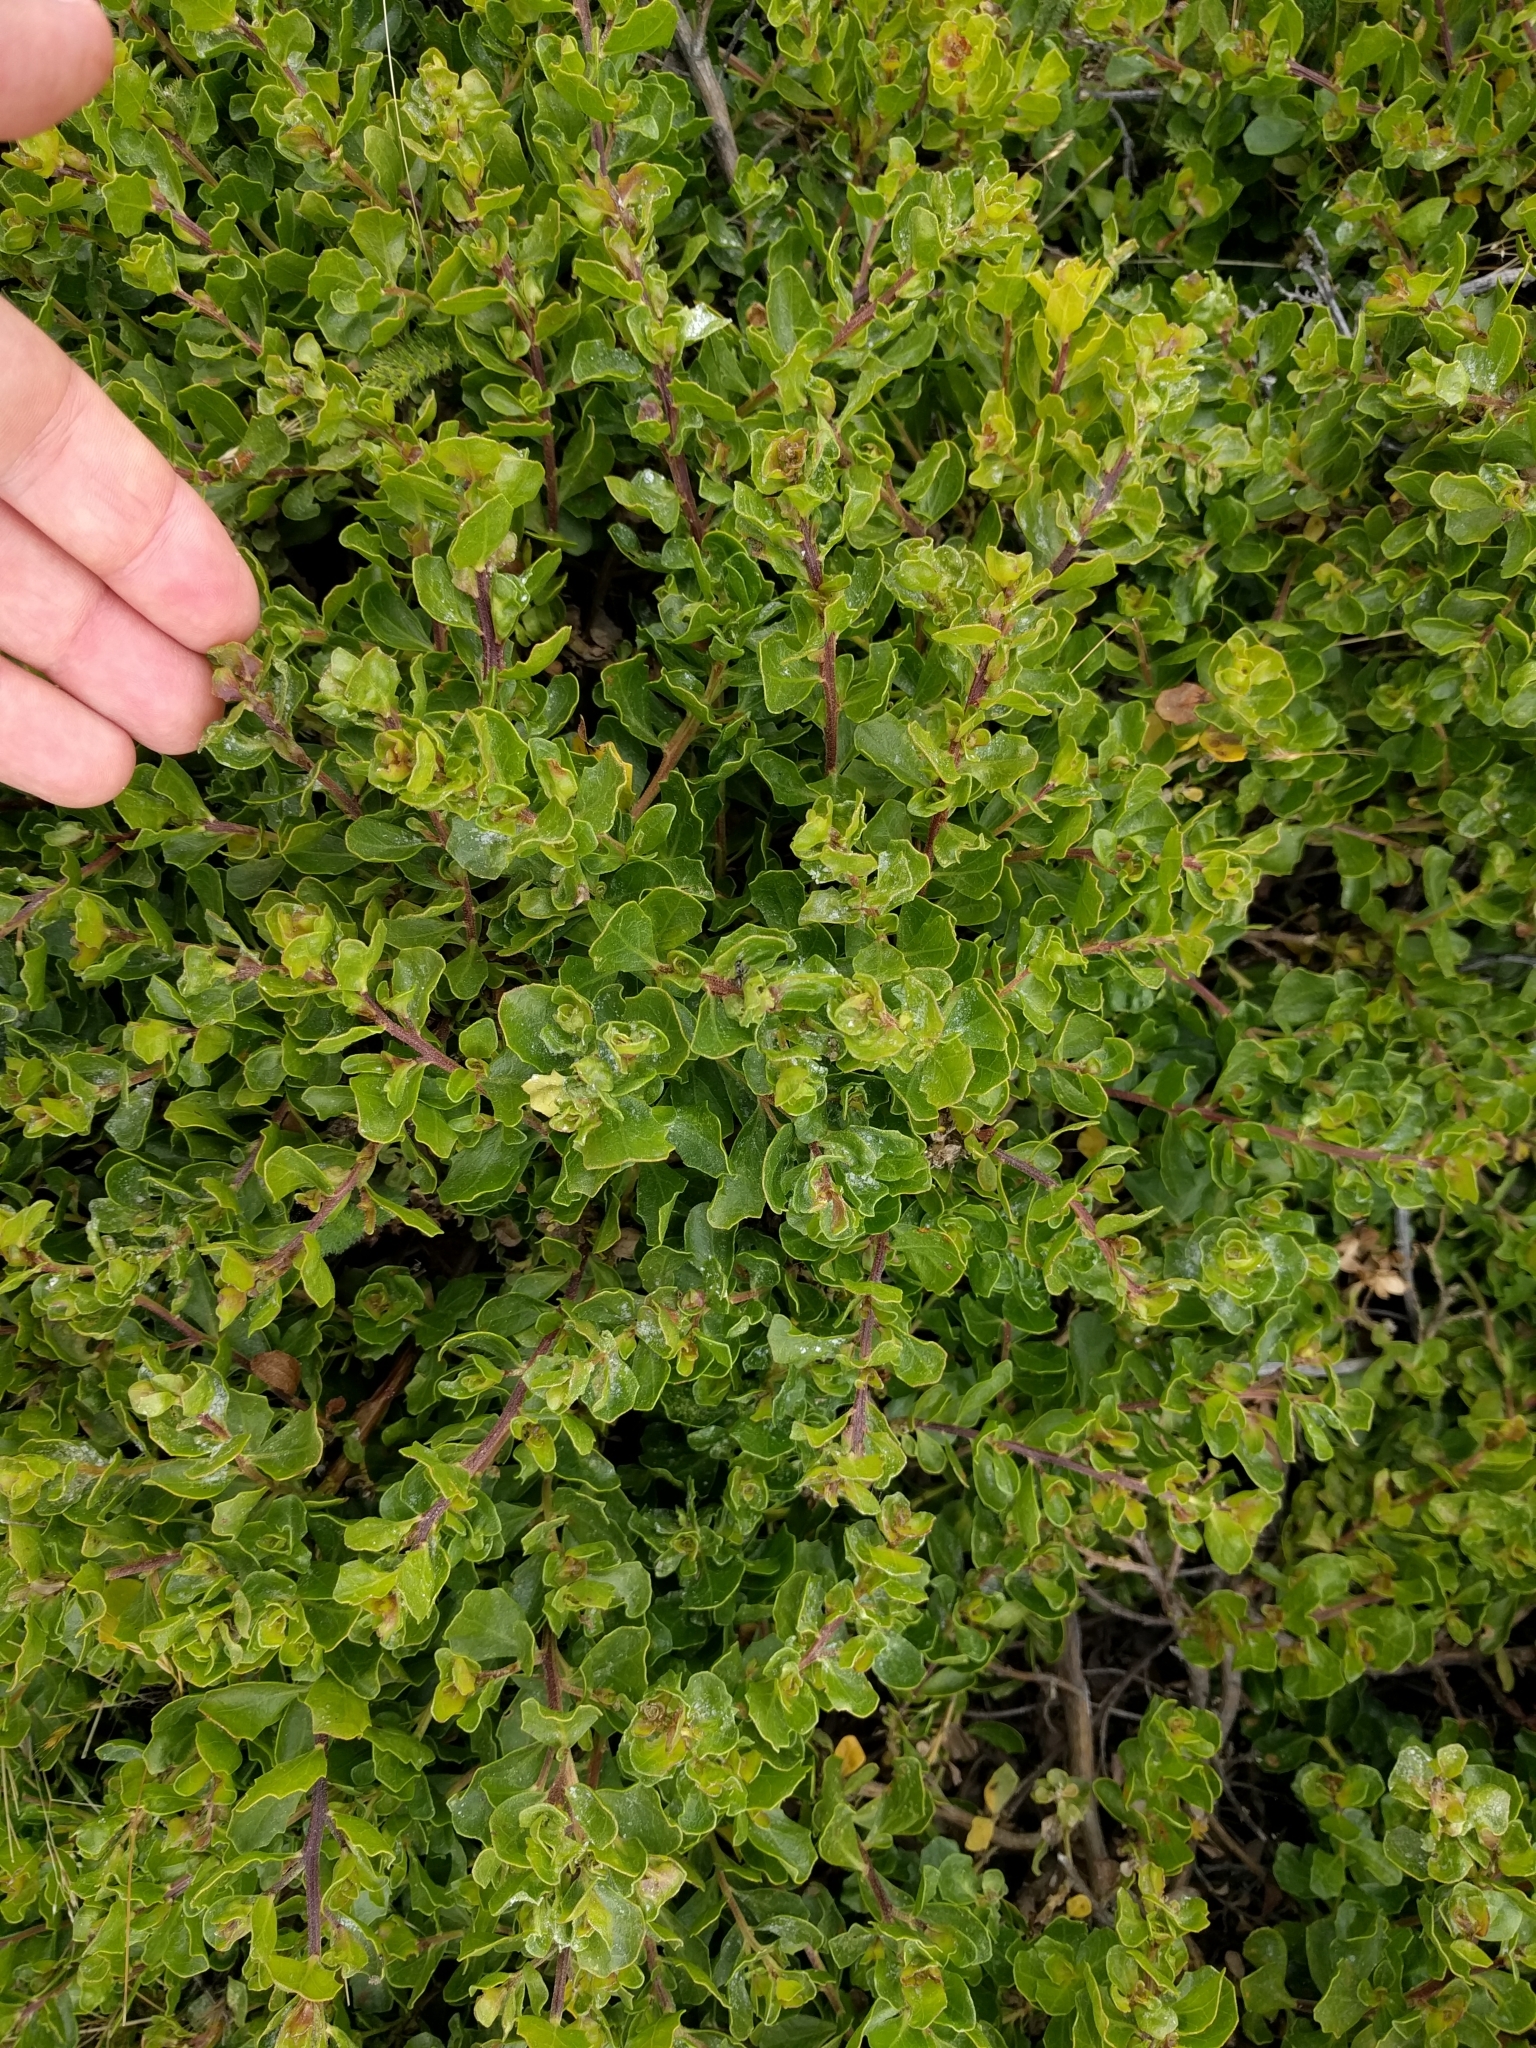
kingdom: Plantae
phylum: Tracheophyta
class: Magnoliopsida
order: Asterales
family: Asteraceae
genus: Baccharis
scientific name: Baccharis pilularis
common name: Coyotebrush
